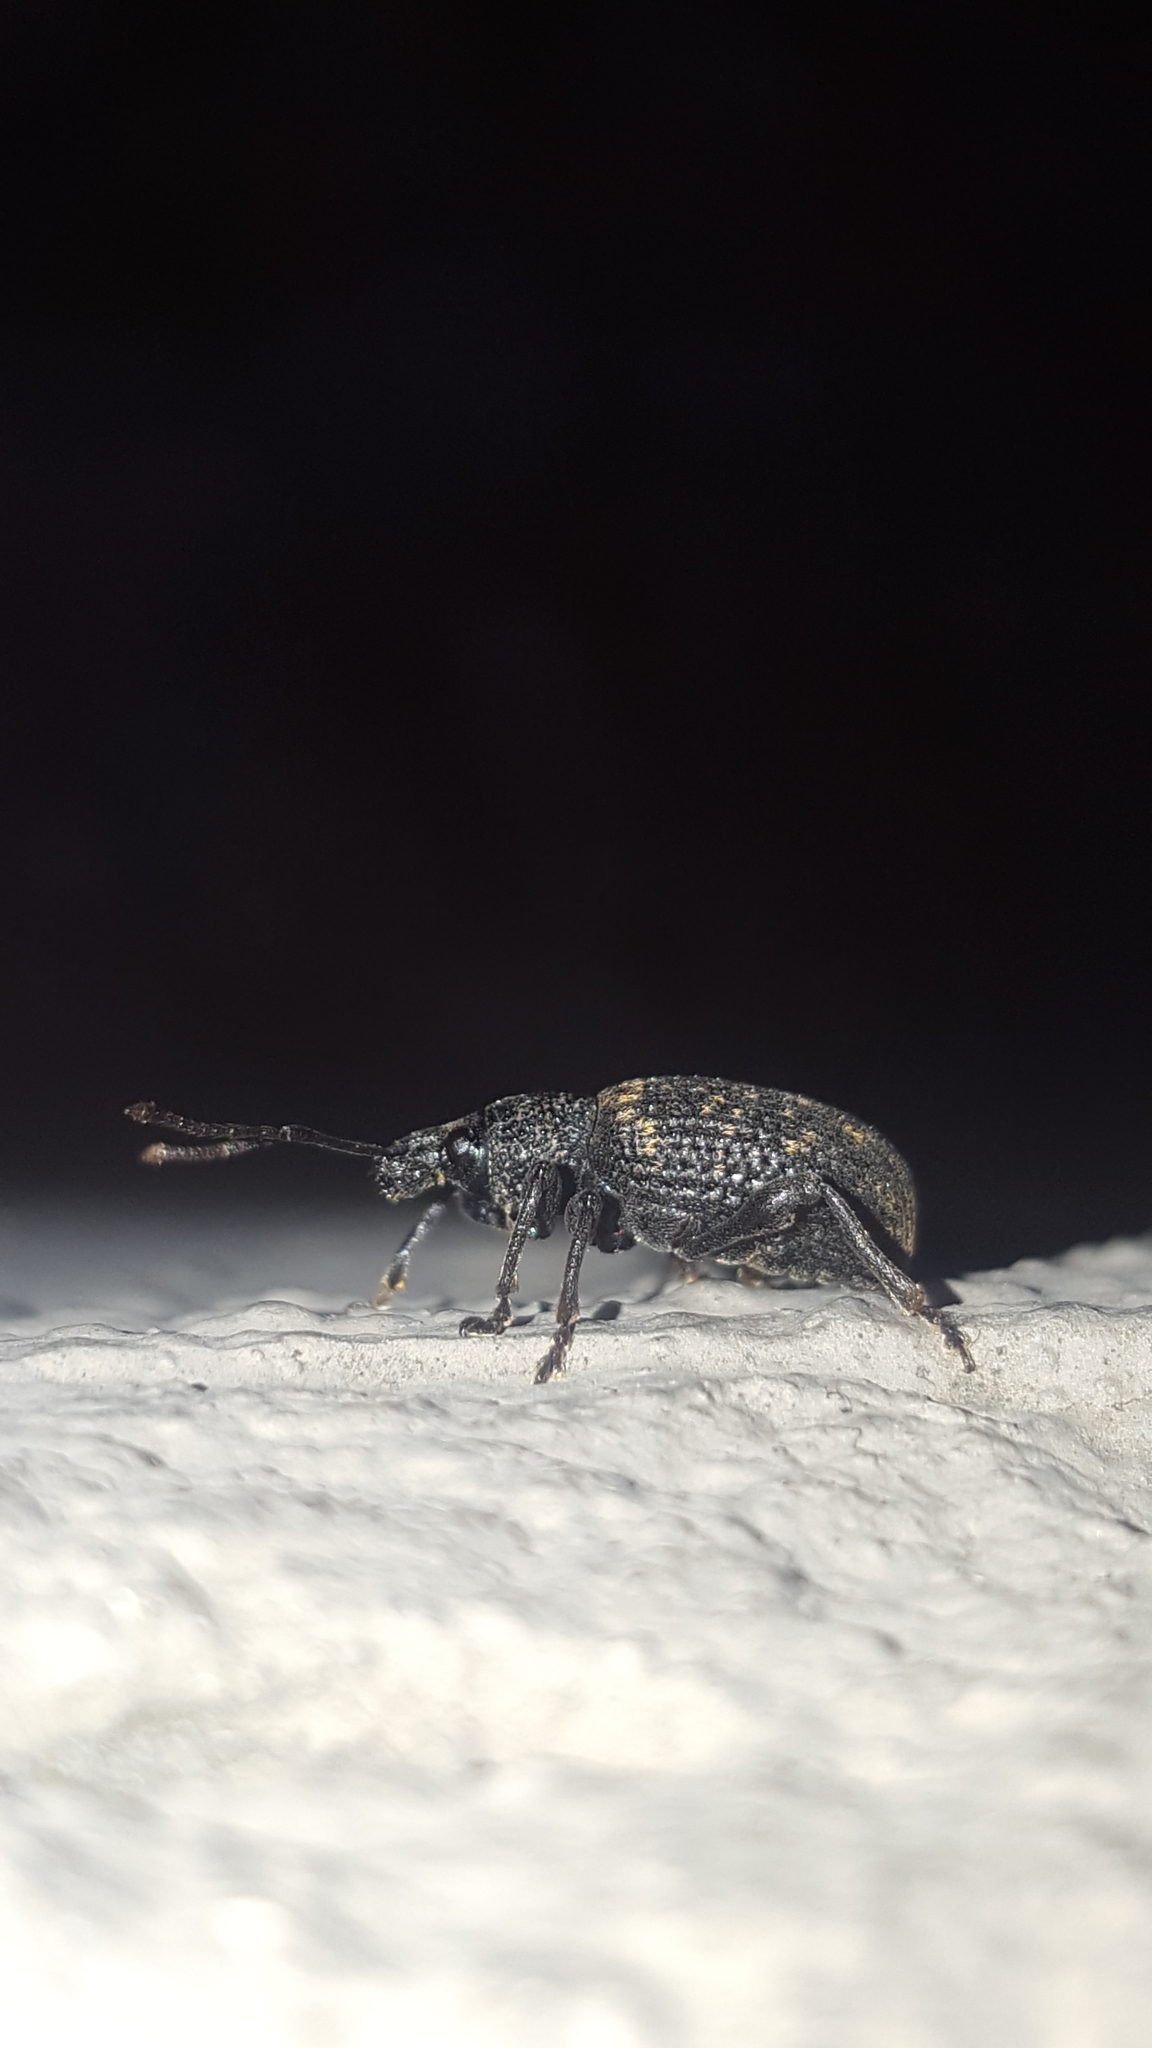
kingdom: Animalia
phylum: Arthropoda
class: Insecta
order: Coleoptera
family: Curculionidae
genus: Otiorhynchus
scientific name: Otiorhynchus sulcatus
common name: Black vine weevil
